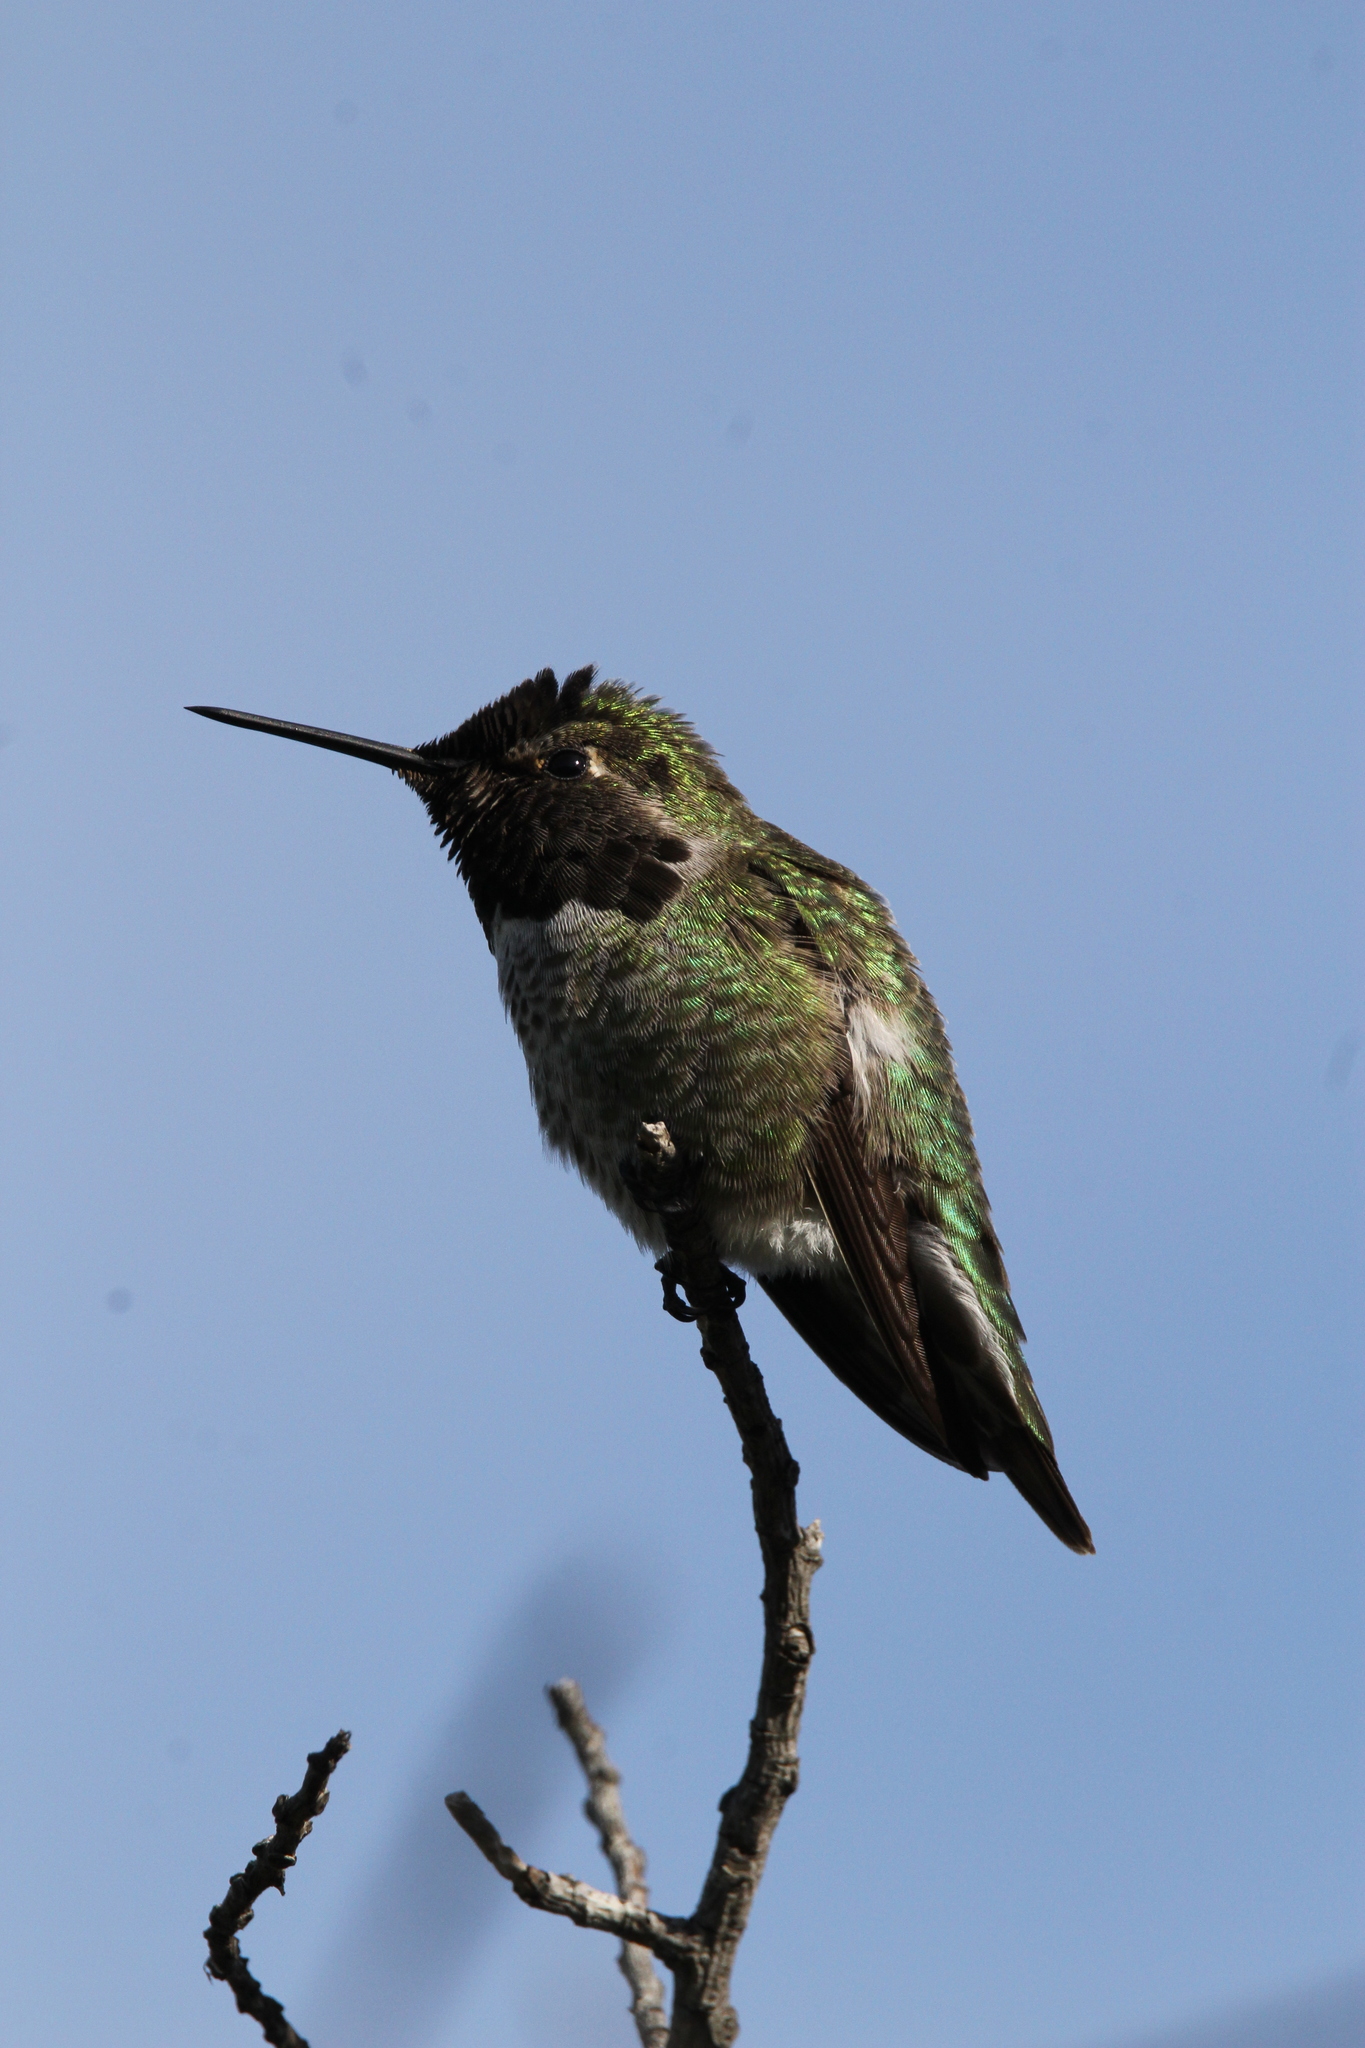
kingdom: Animalia
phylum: Chordata
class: Aves
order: Apodiformes
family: Trochilidae
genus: Calypte
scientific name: Calypte anna
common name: Anna's hummingbird
